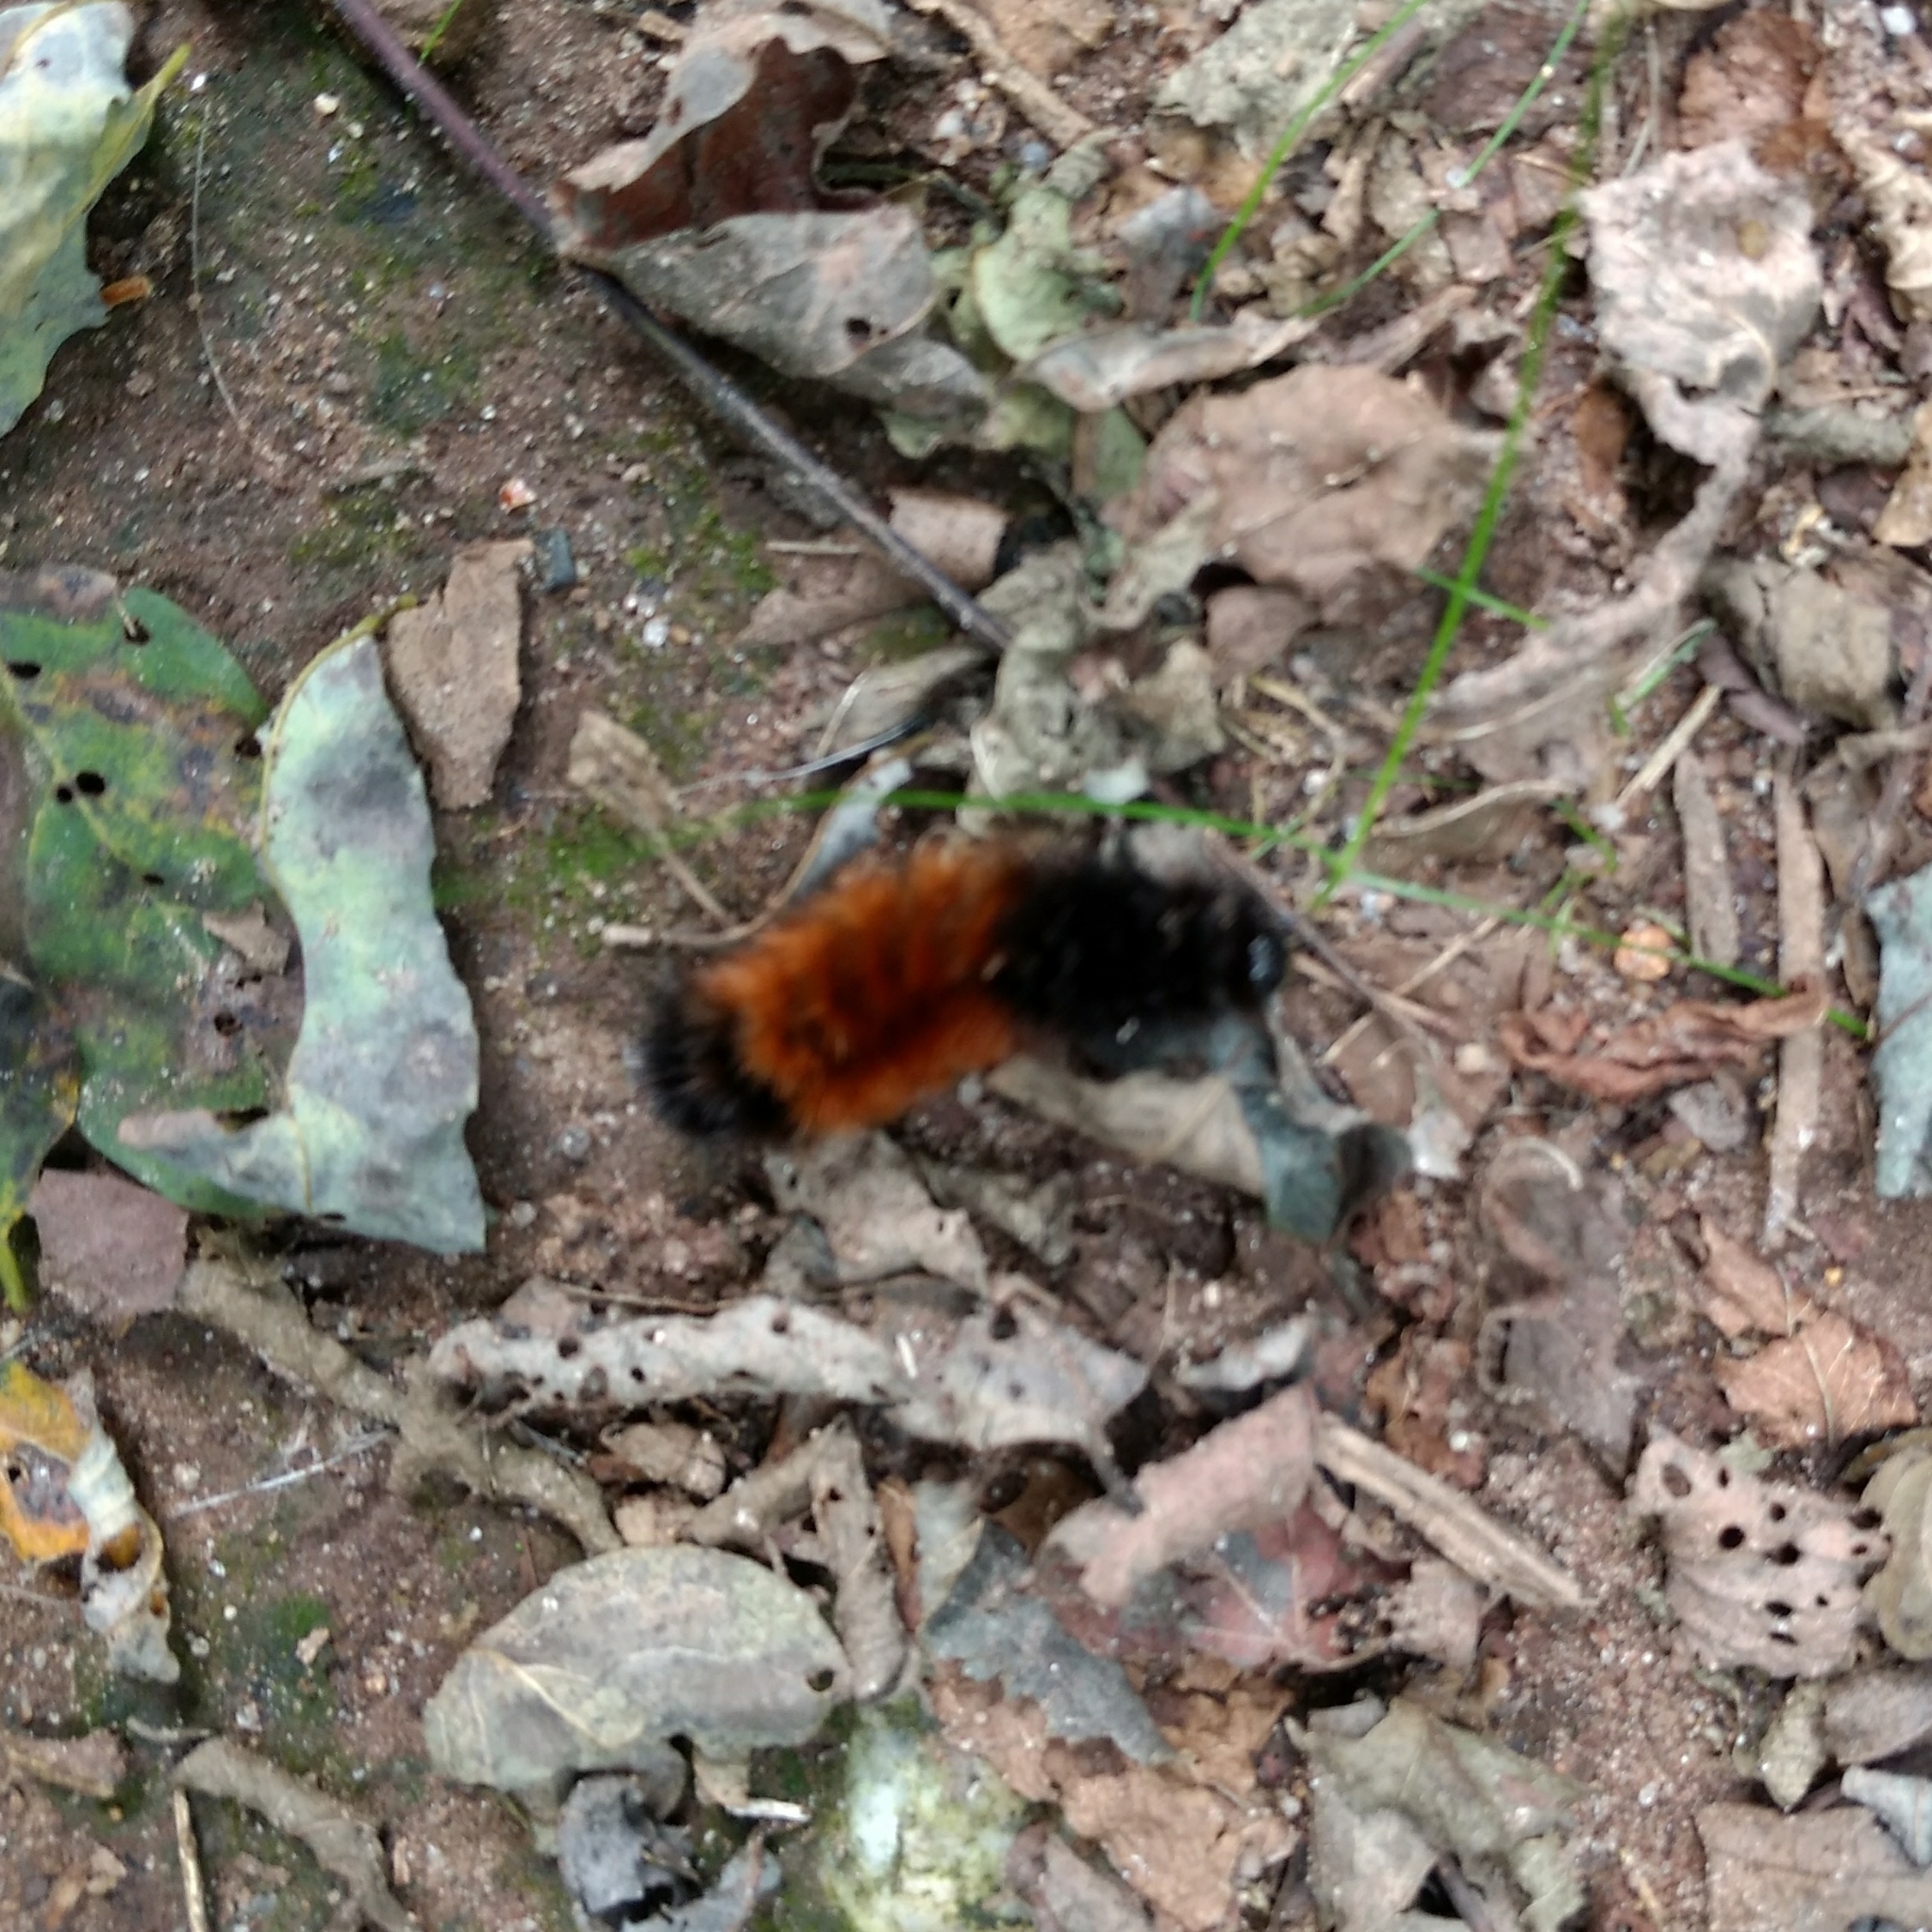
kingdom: Animalia
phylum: Arthropoda
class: Insecta
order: Lepidoptera
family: Erebidae
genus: Pyrrharctia
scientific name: Pyrrharctia isabella
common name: Isabella tiger moth
